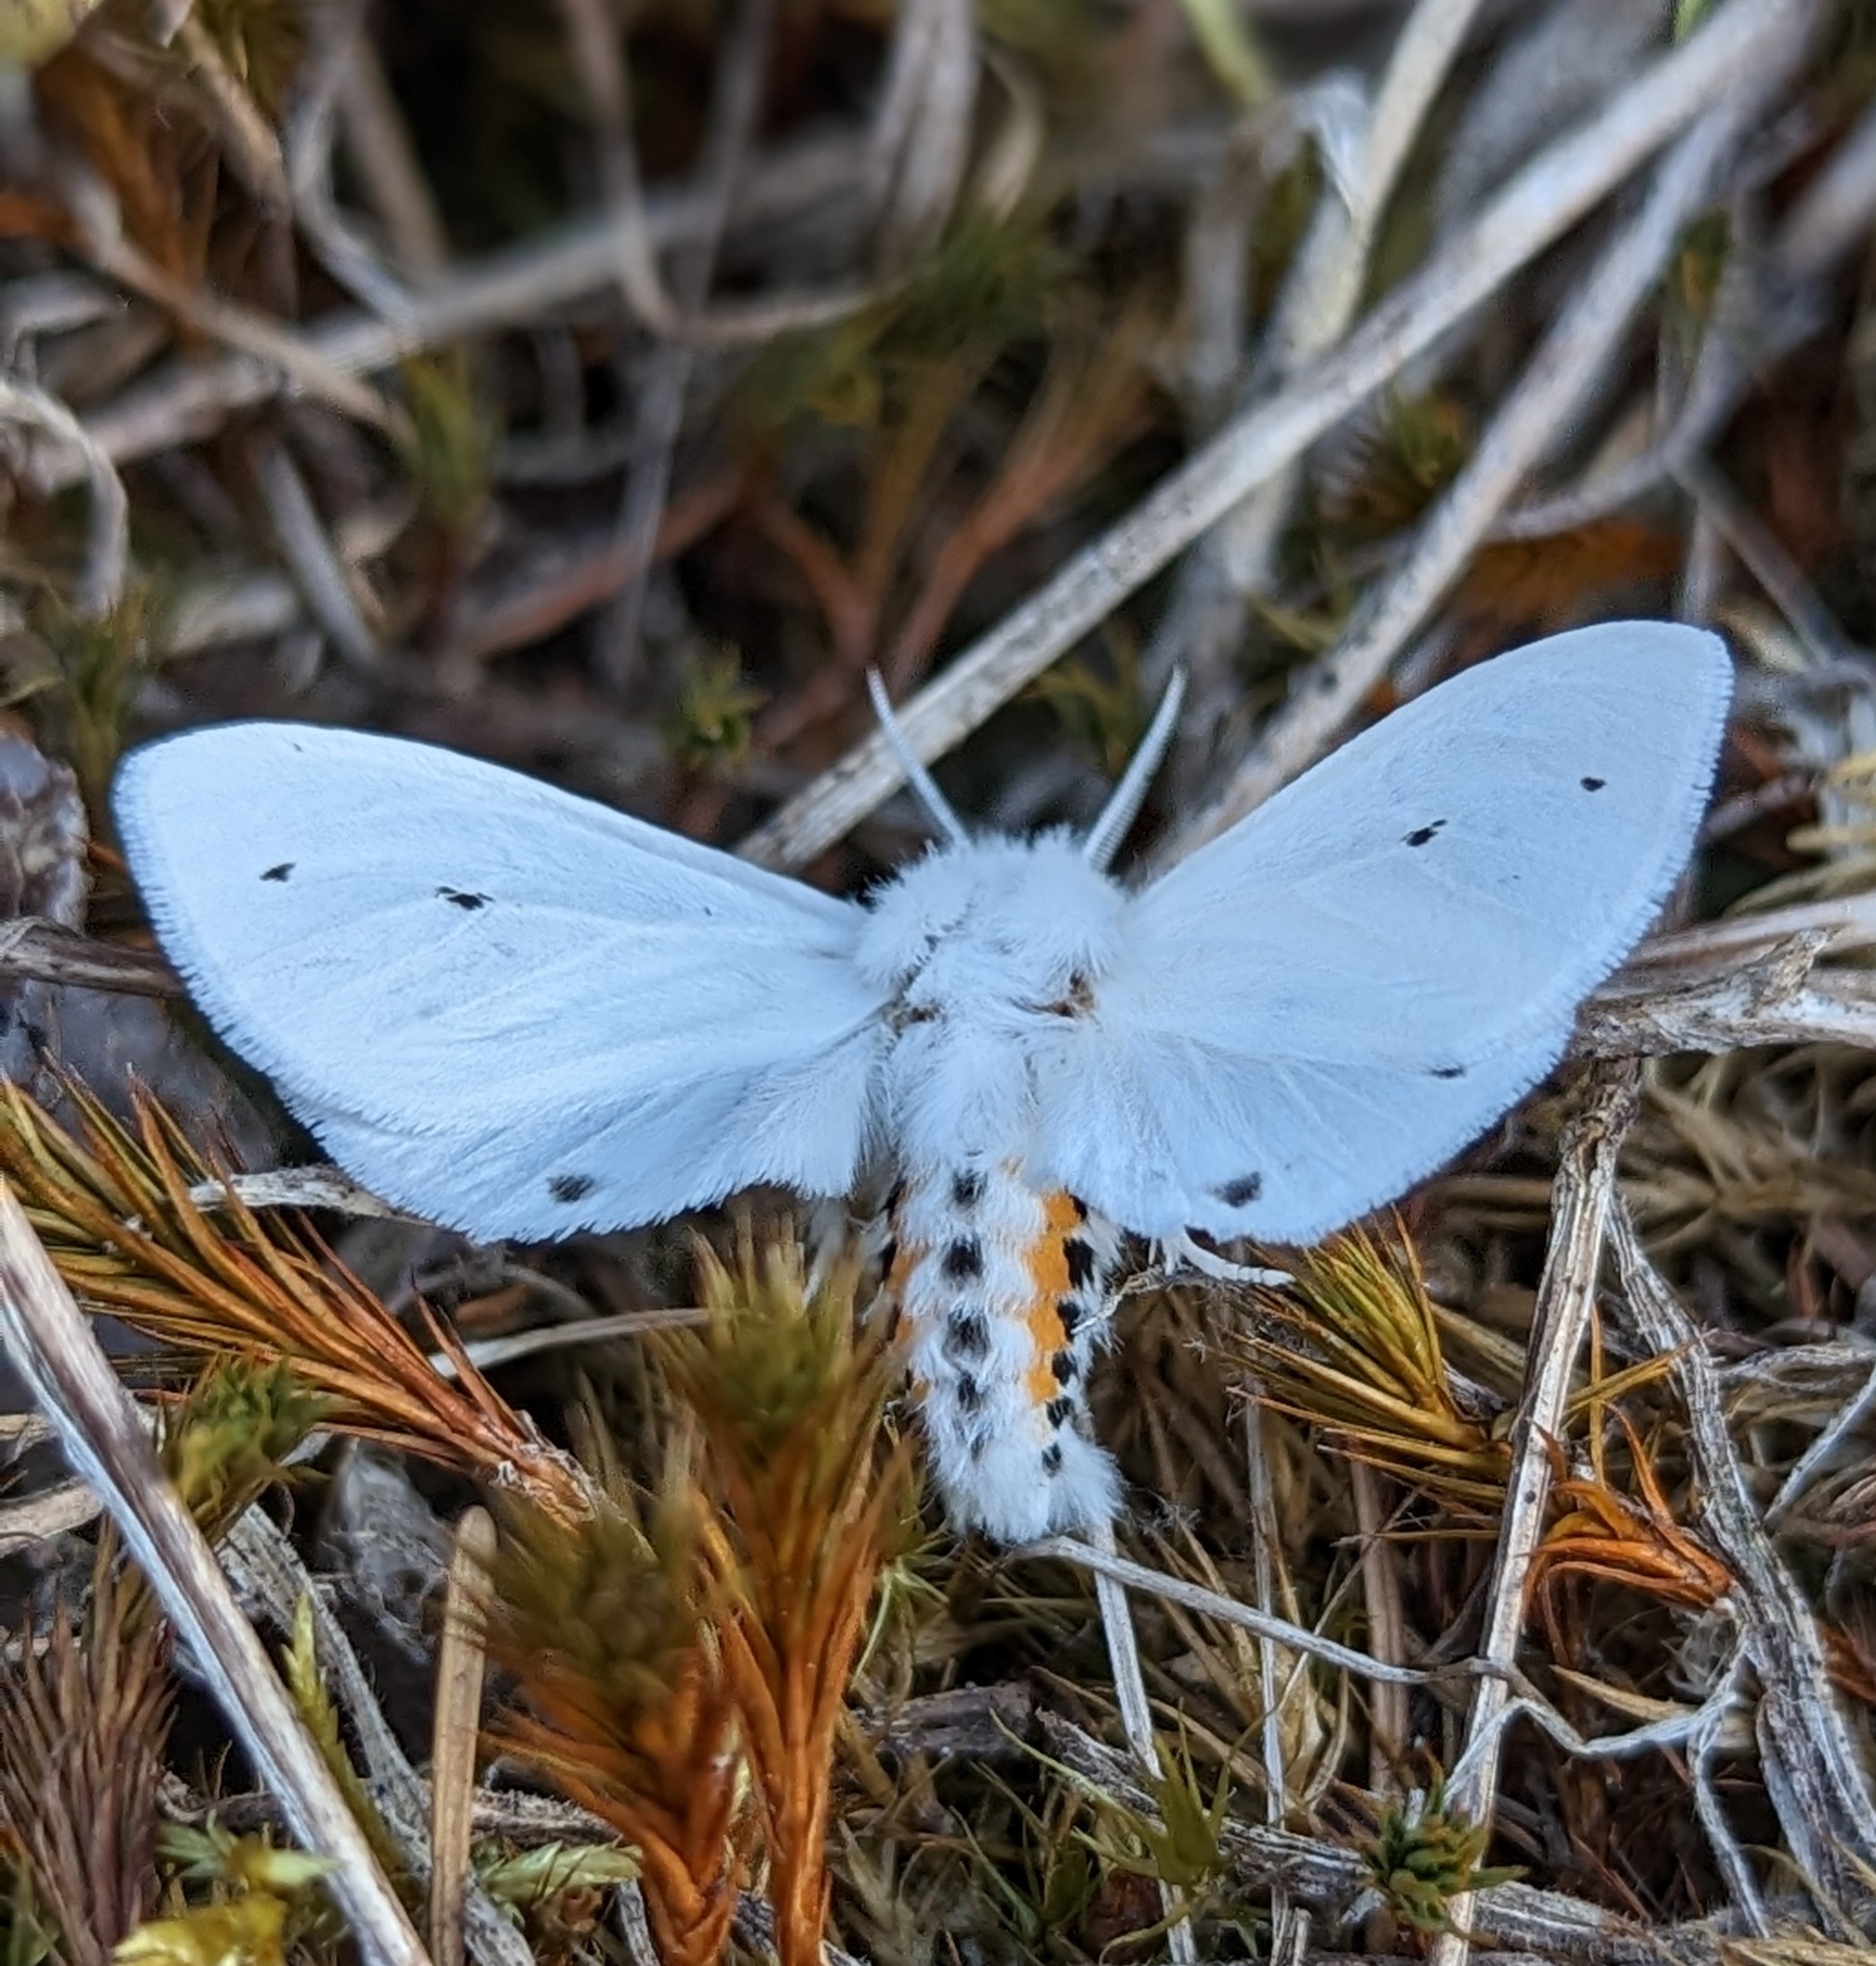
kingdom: Animalia
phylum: Arthropoda
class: Insecta
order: Lepidoptera
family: Erebidae
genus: Spilosoma
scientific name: Spilosoma virginica
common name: Virginia tiger moth
